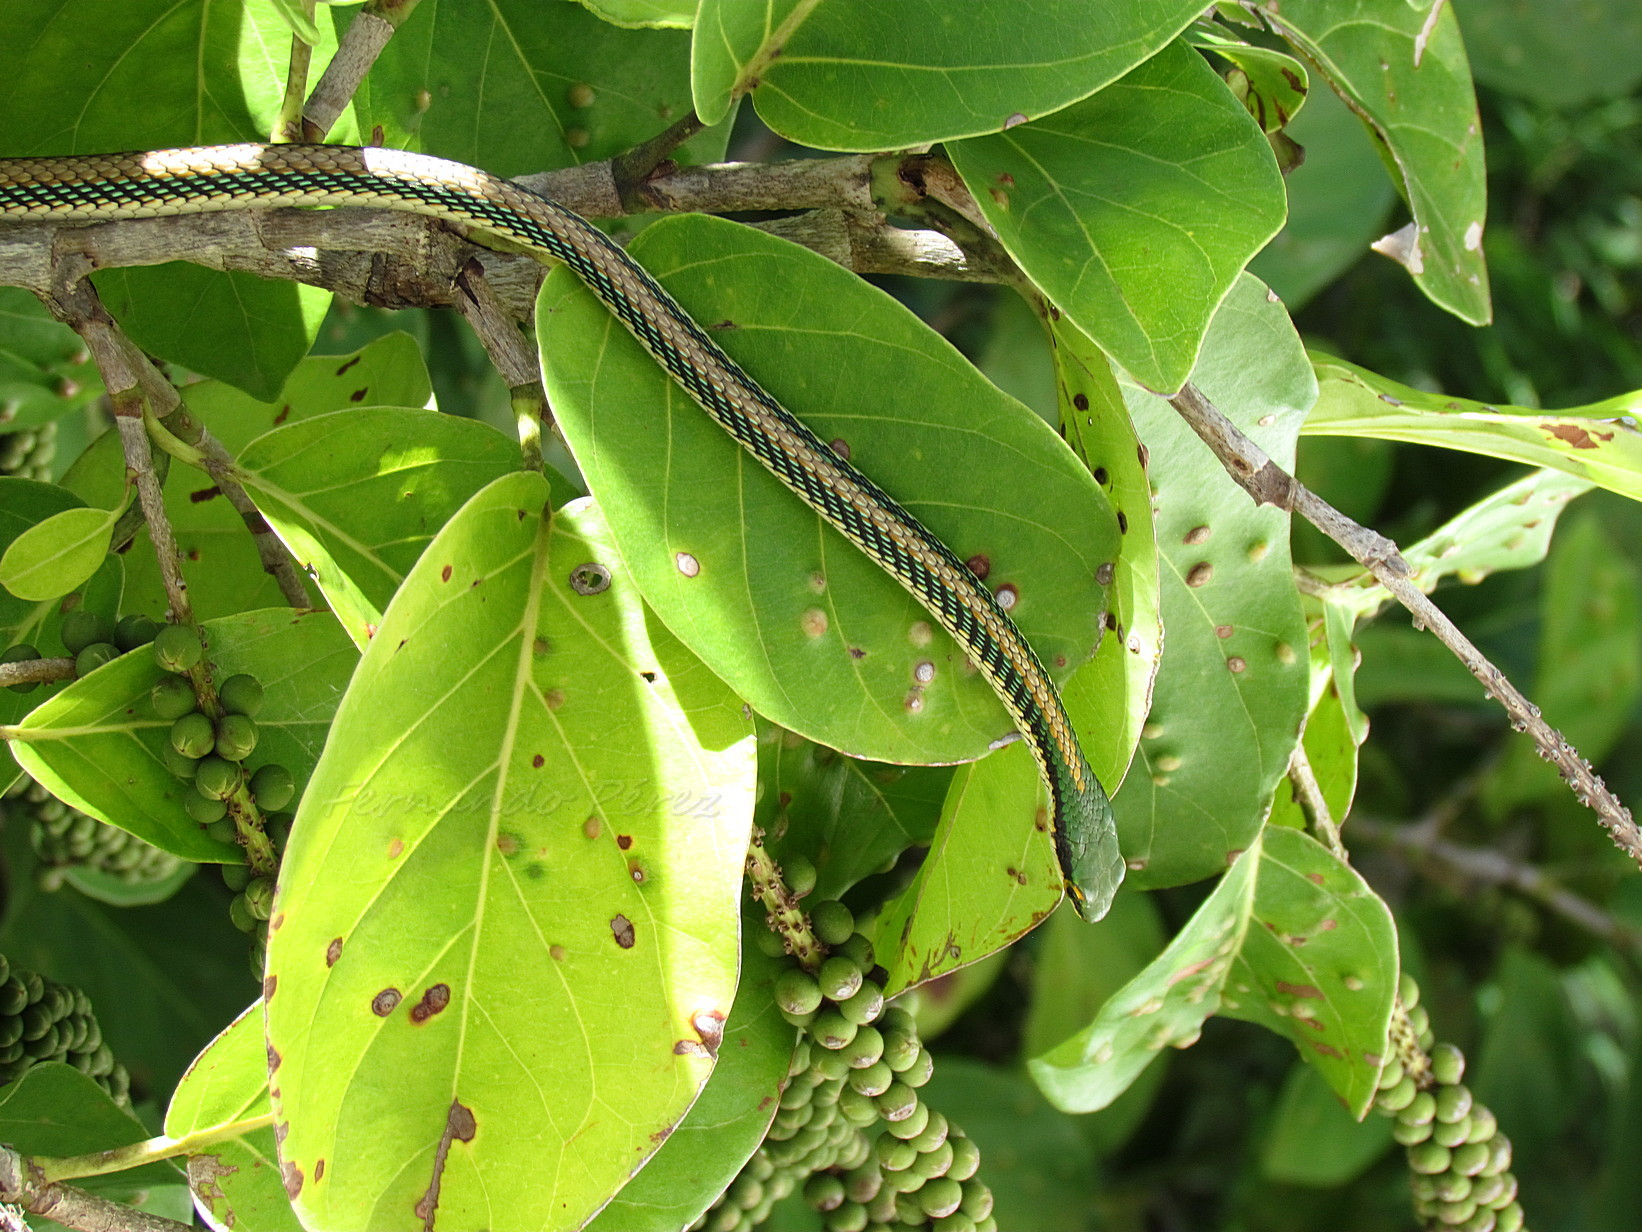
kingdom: Animalia
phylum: Chordata
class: Squamata
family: Colubridae
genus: Leptophis
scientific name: Leptophis mexicanus
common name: Mexican parrot snake
